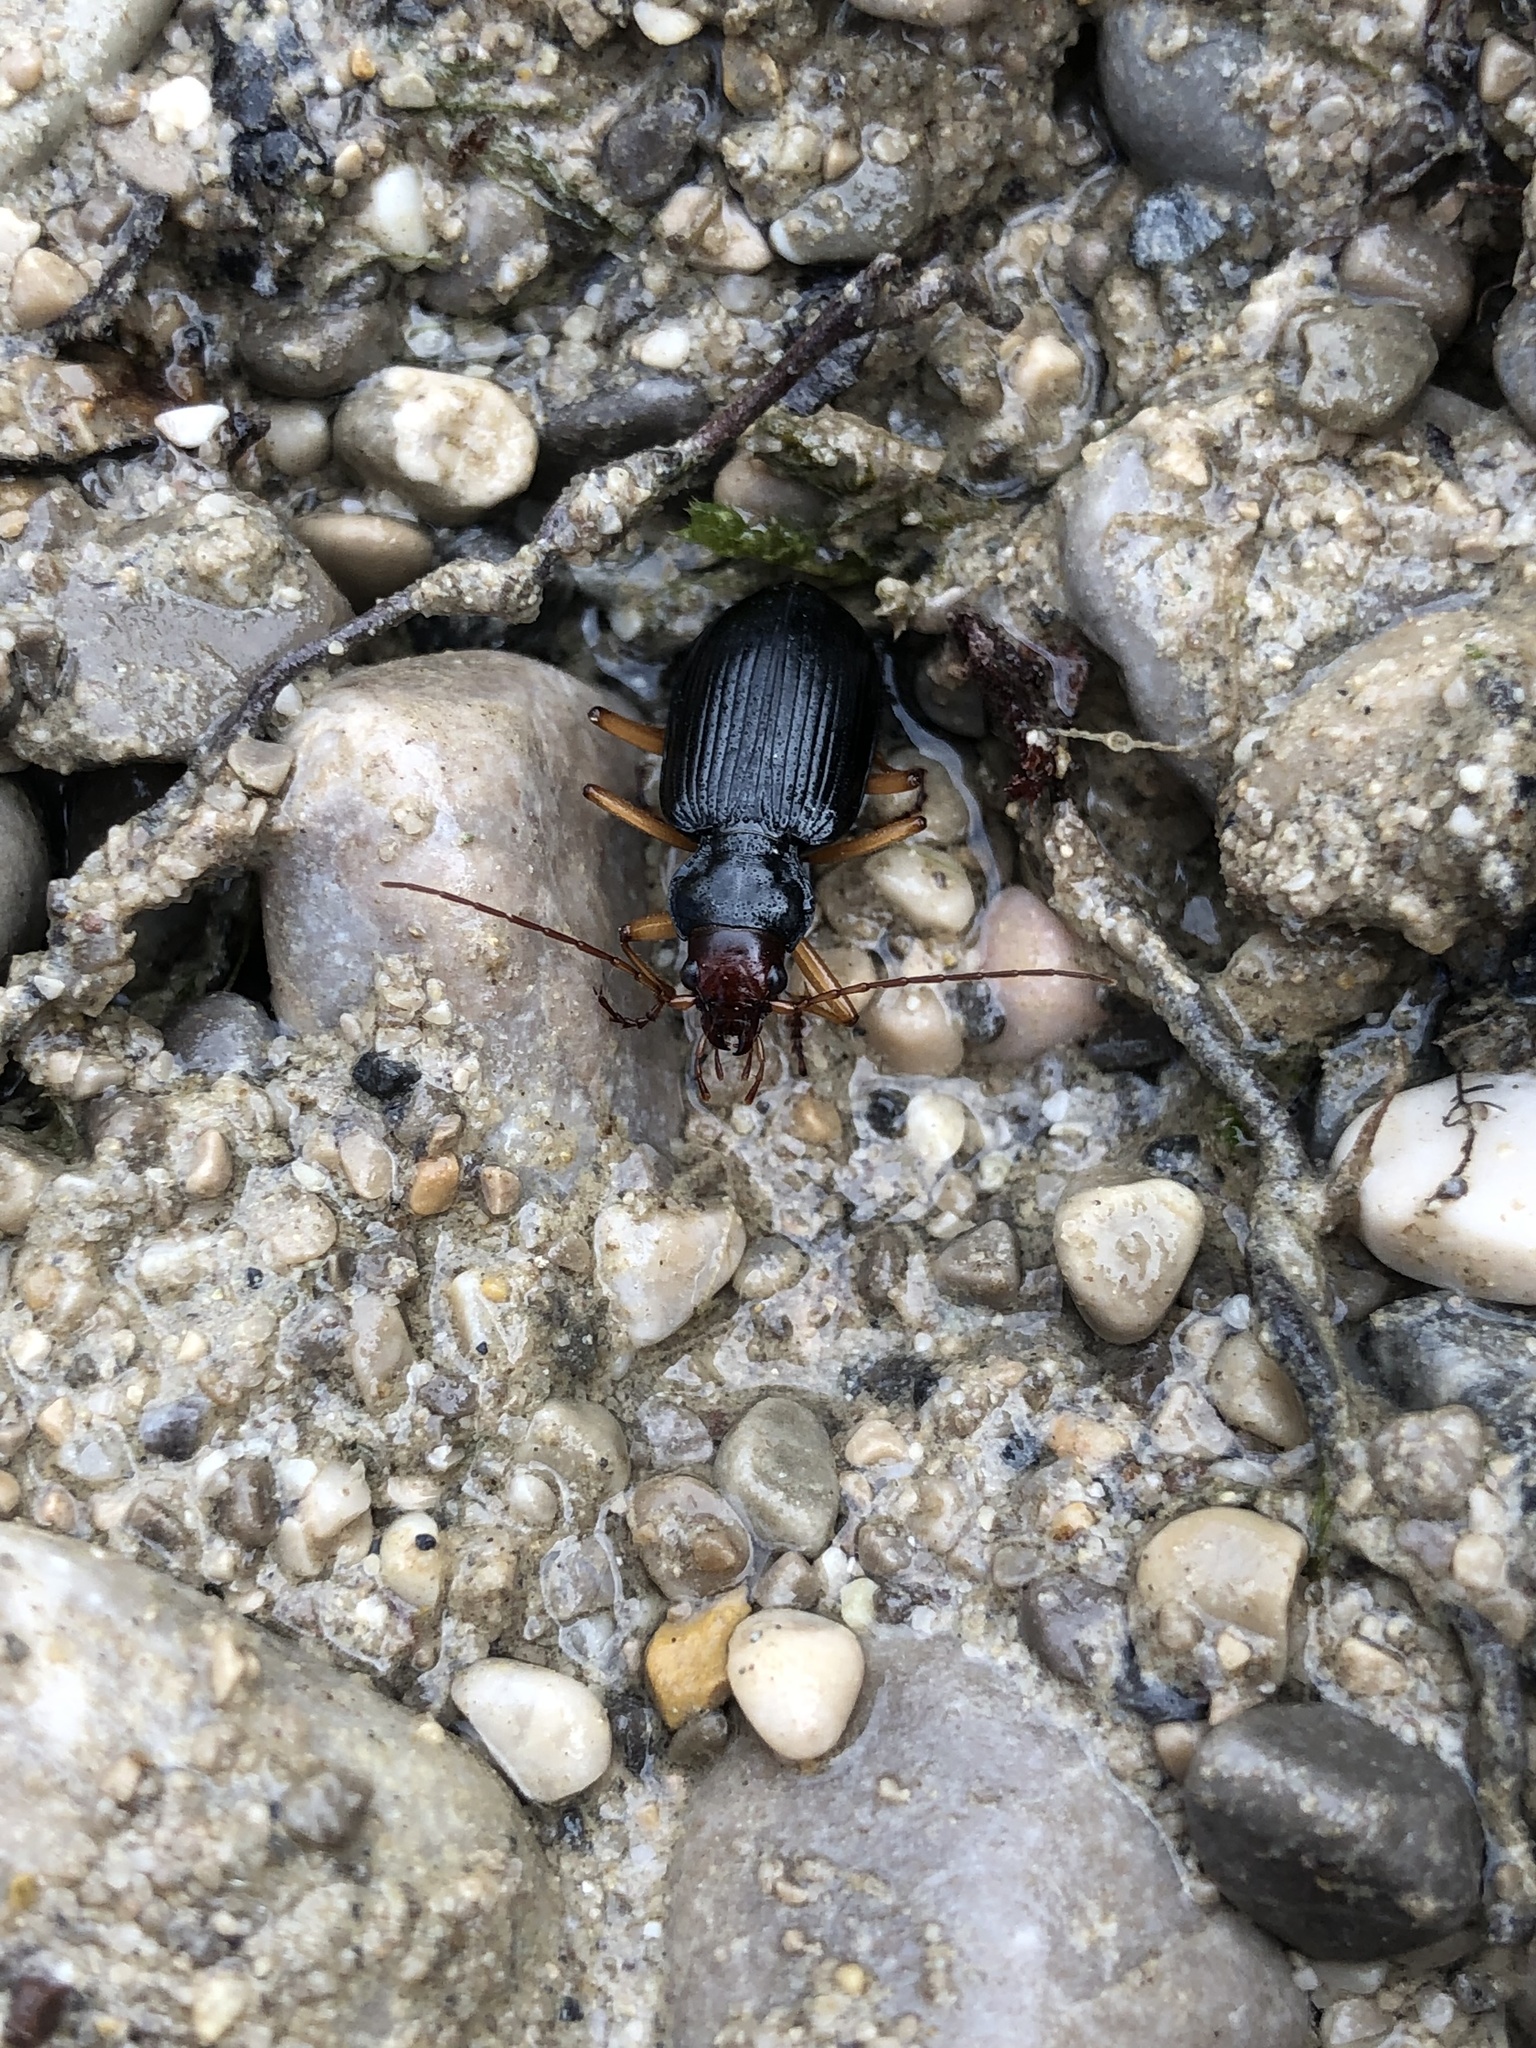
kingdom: Animalia
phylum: Arthropoda
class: Insecta
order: Coleoptera
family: Carabidae
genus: Nebria
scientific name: Nebria picicornis
